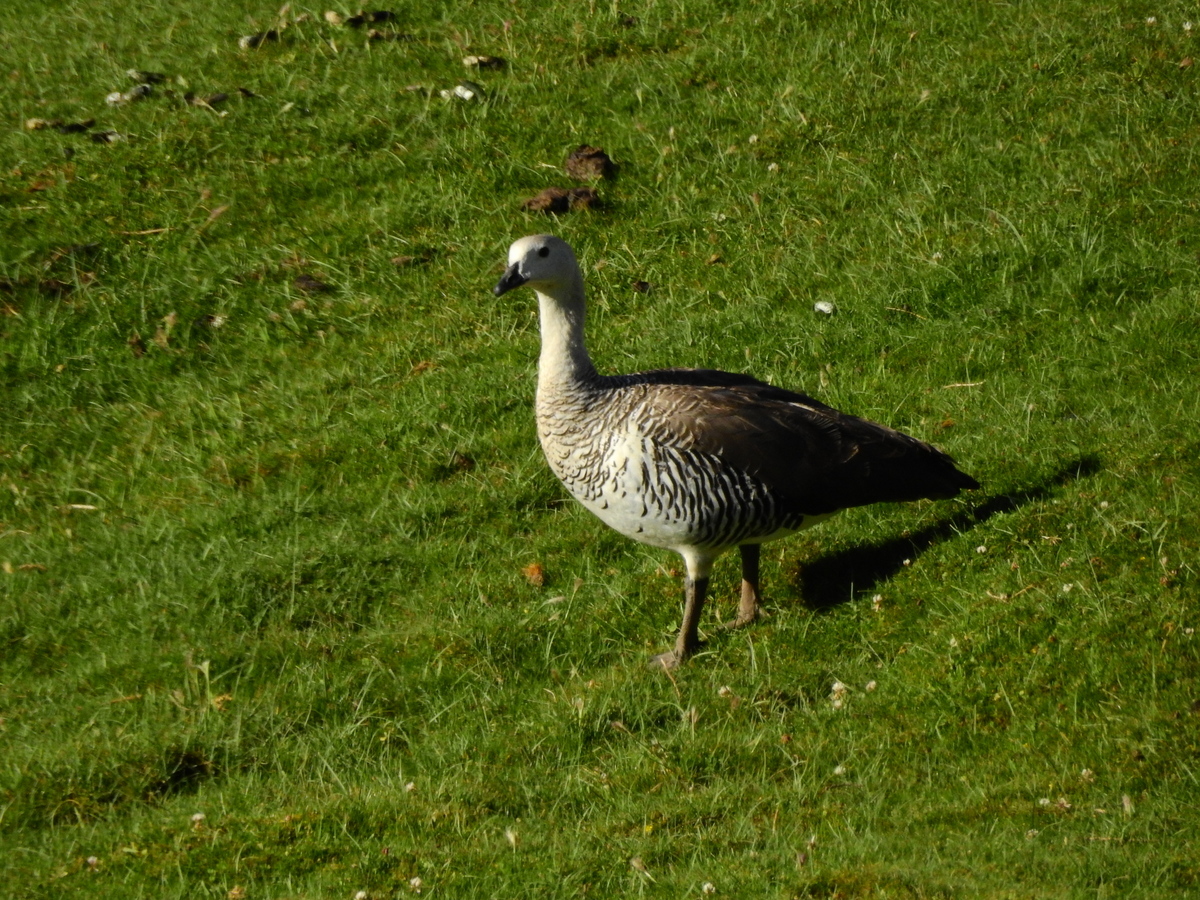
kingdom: Animalia
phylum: Chordata
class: Aves
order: Anseriformes
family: Anatidae
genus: Chloephaga
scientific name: Chloephaga picta
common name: Upland goose
